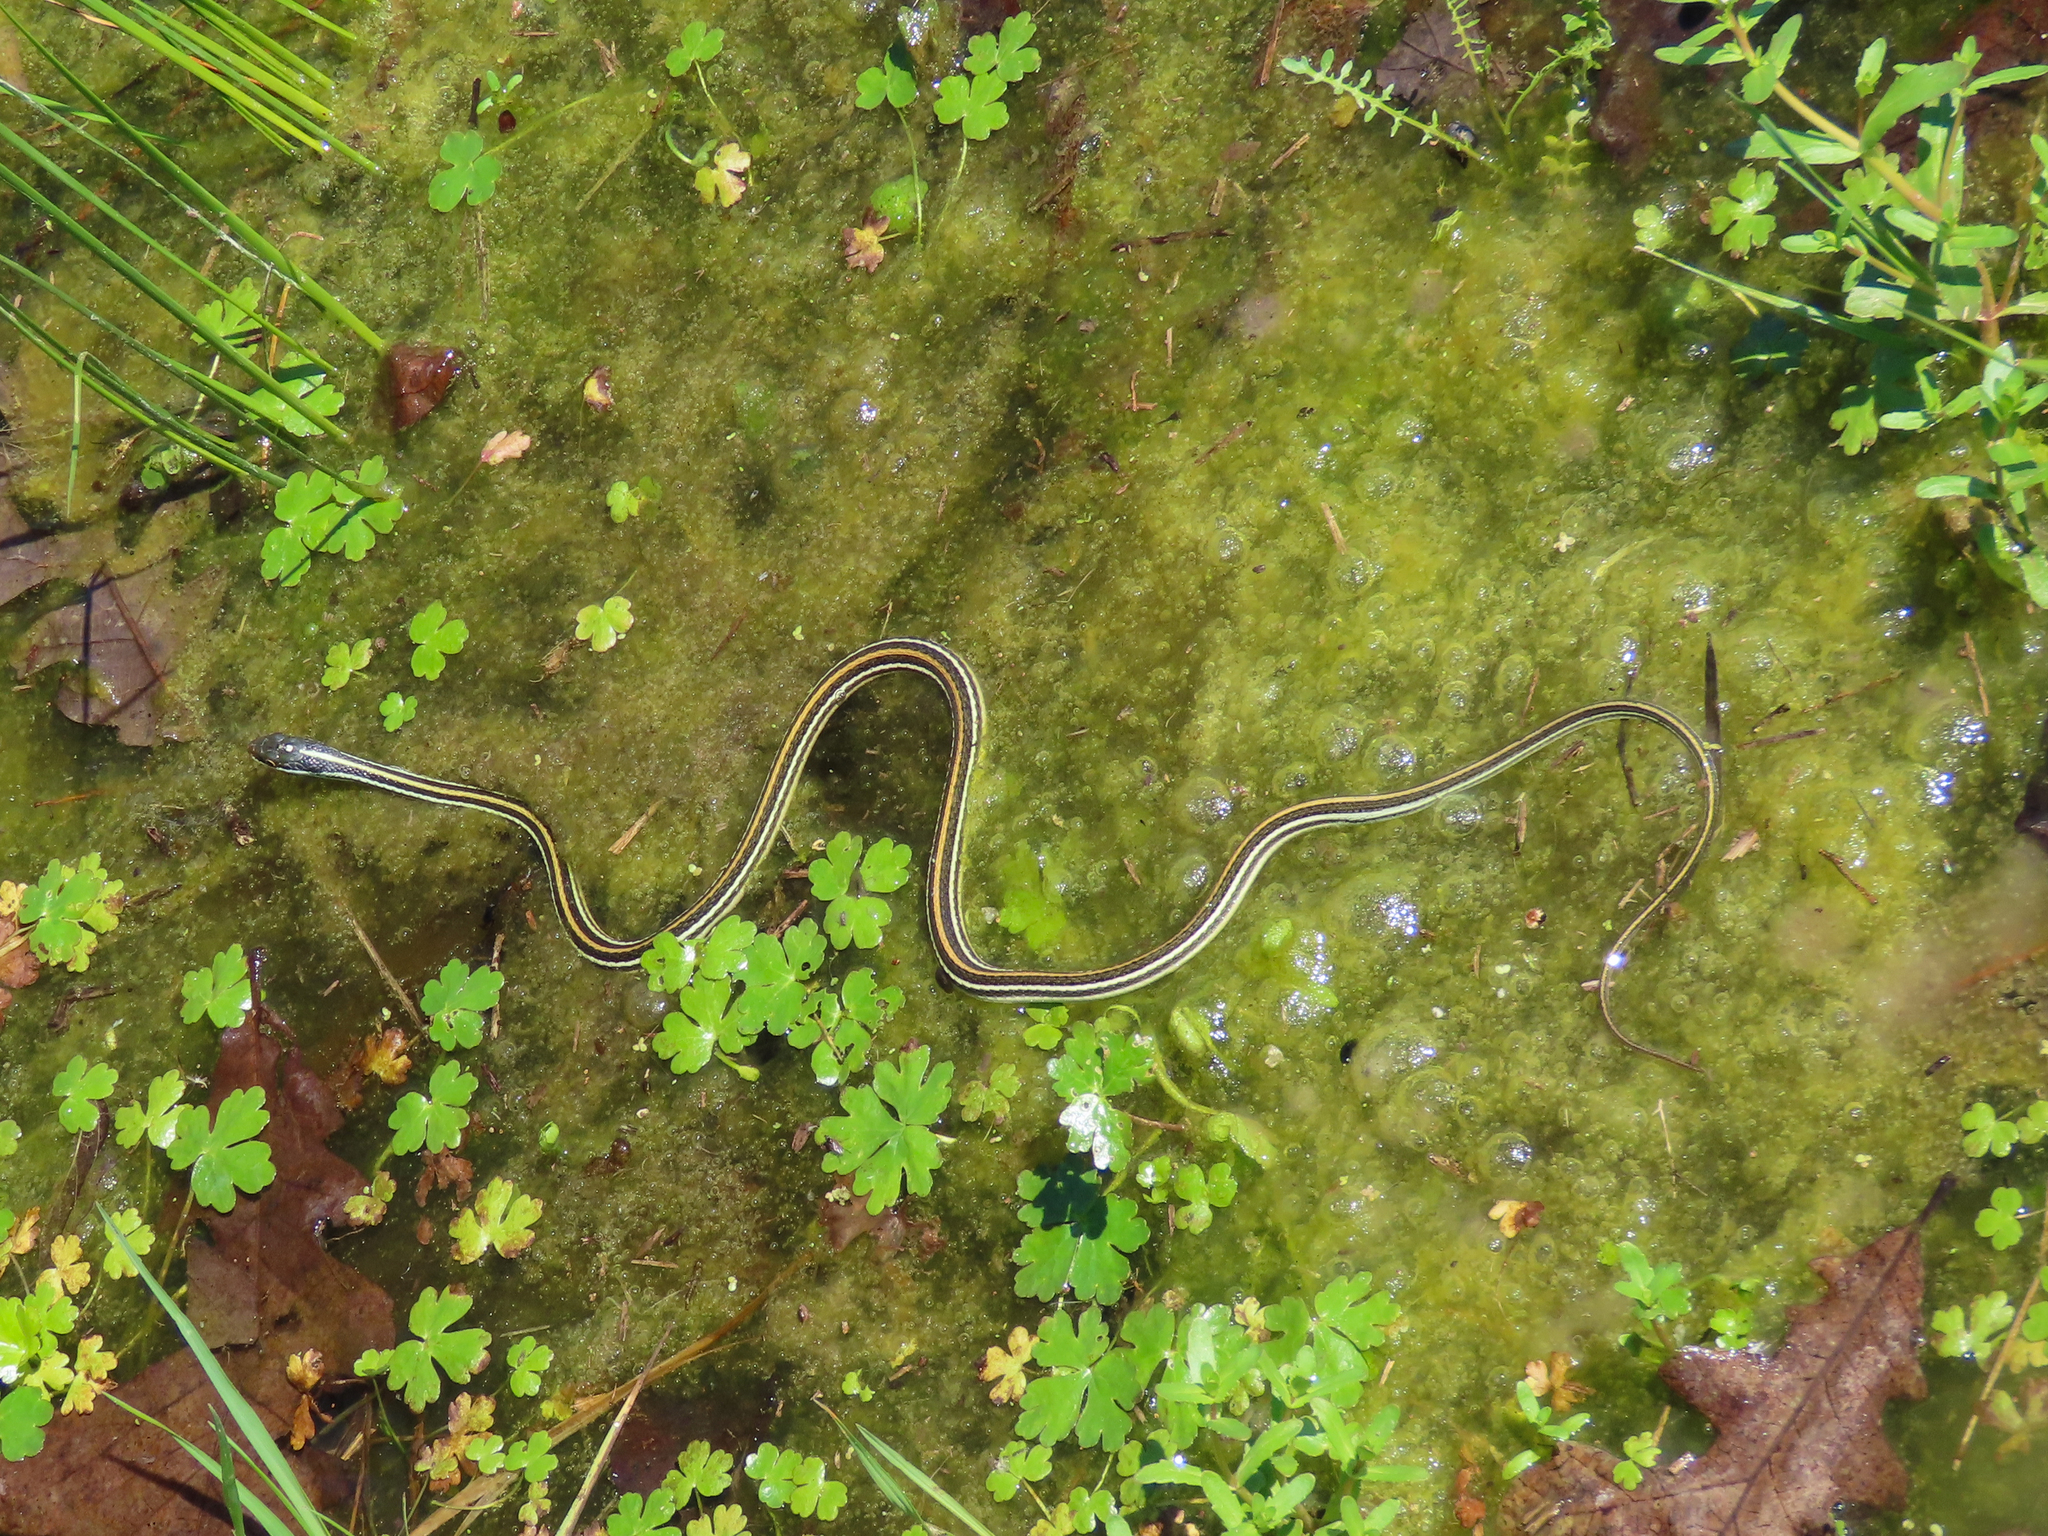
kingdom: Animalia
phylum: Chordata
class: Squamata
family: Colubridae
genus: Thamnophis
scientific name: Thamnophis proximus
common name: Western ribbon snake
